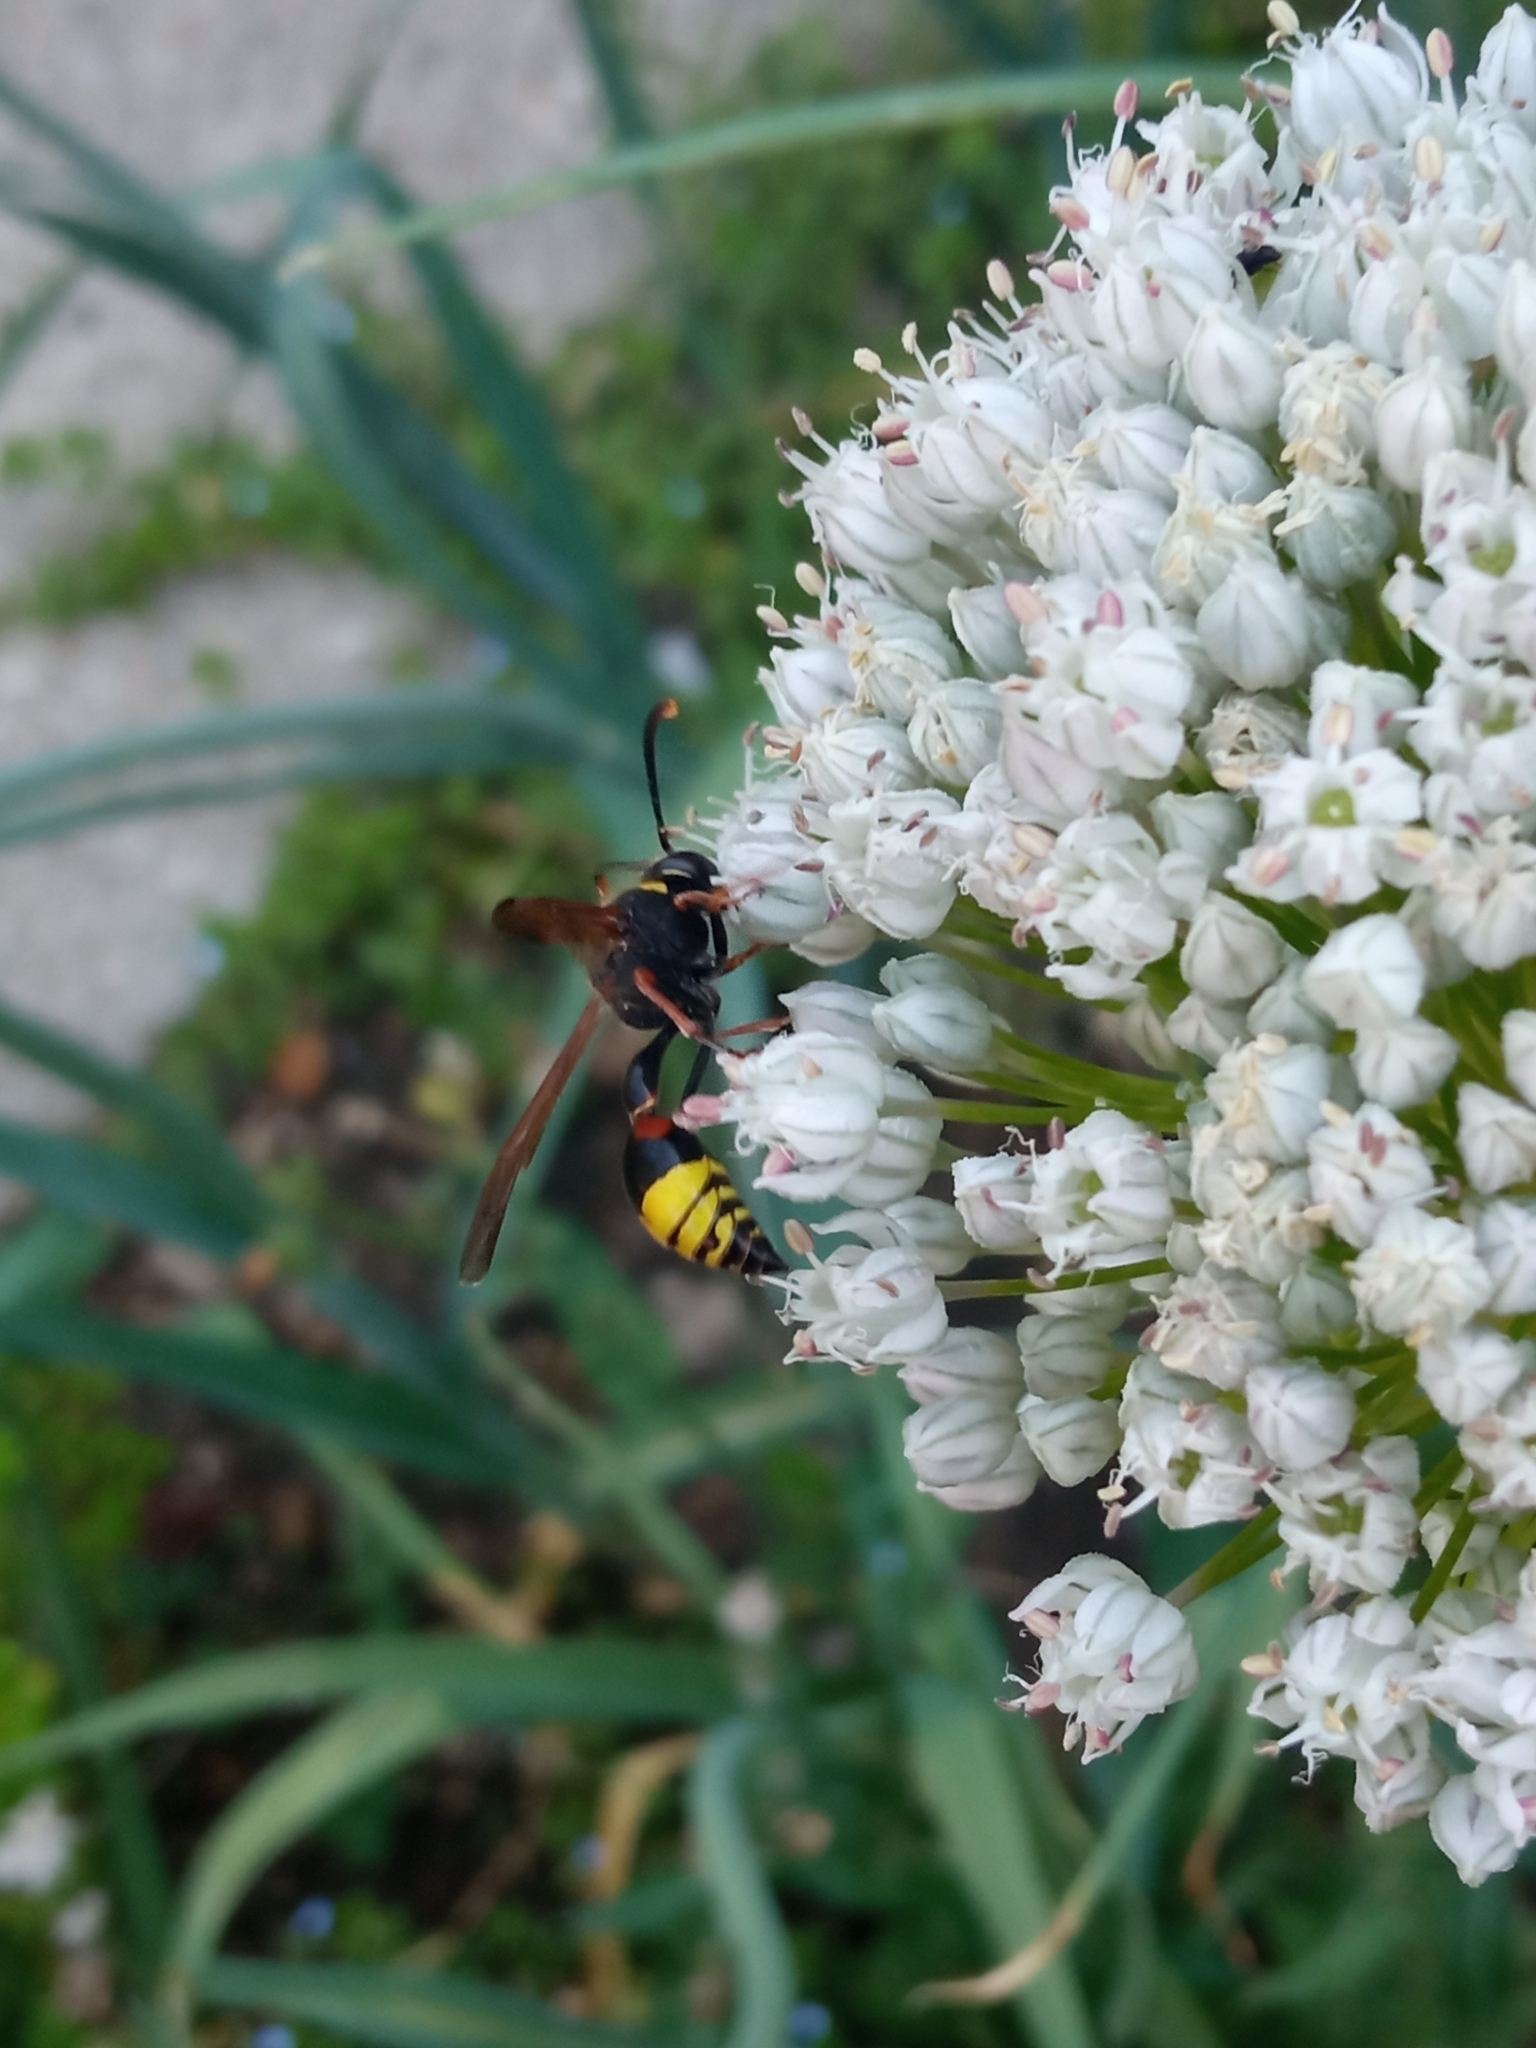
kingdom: Animalia
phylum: Arthropoda
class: Insecta
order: Hymenoptera
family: Eumenidae
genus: Delta
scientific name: Delta unguiculatum
